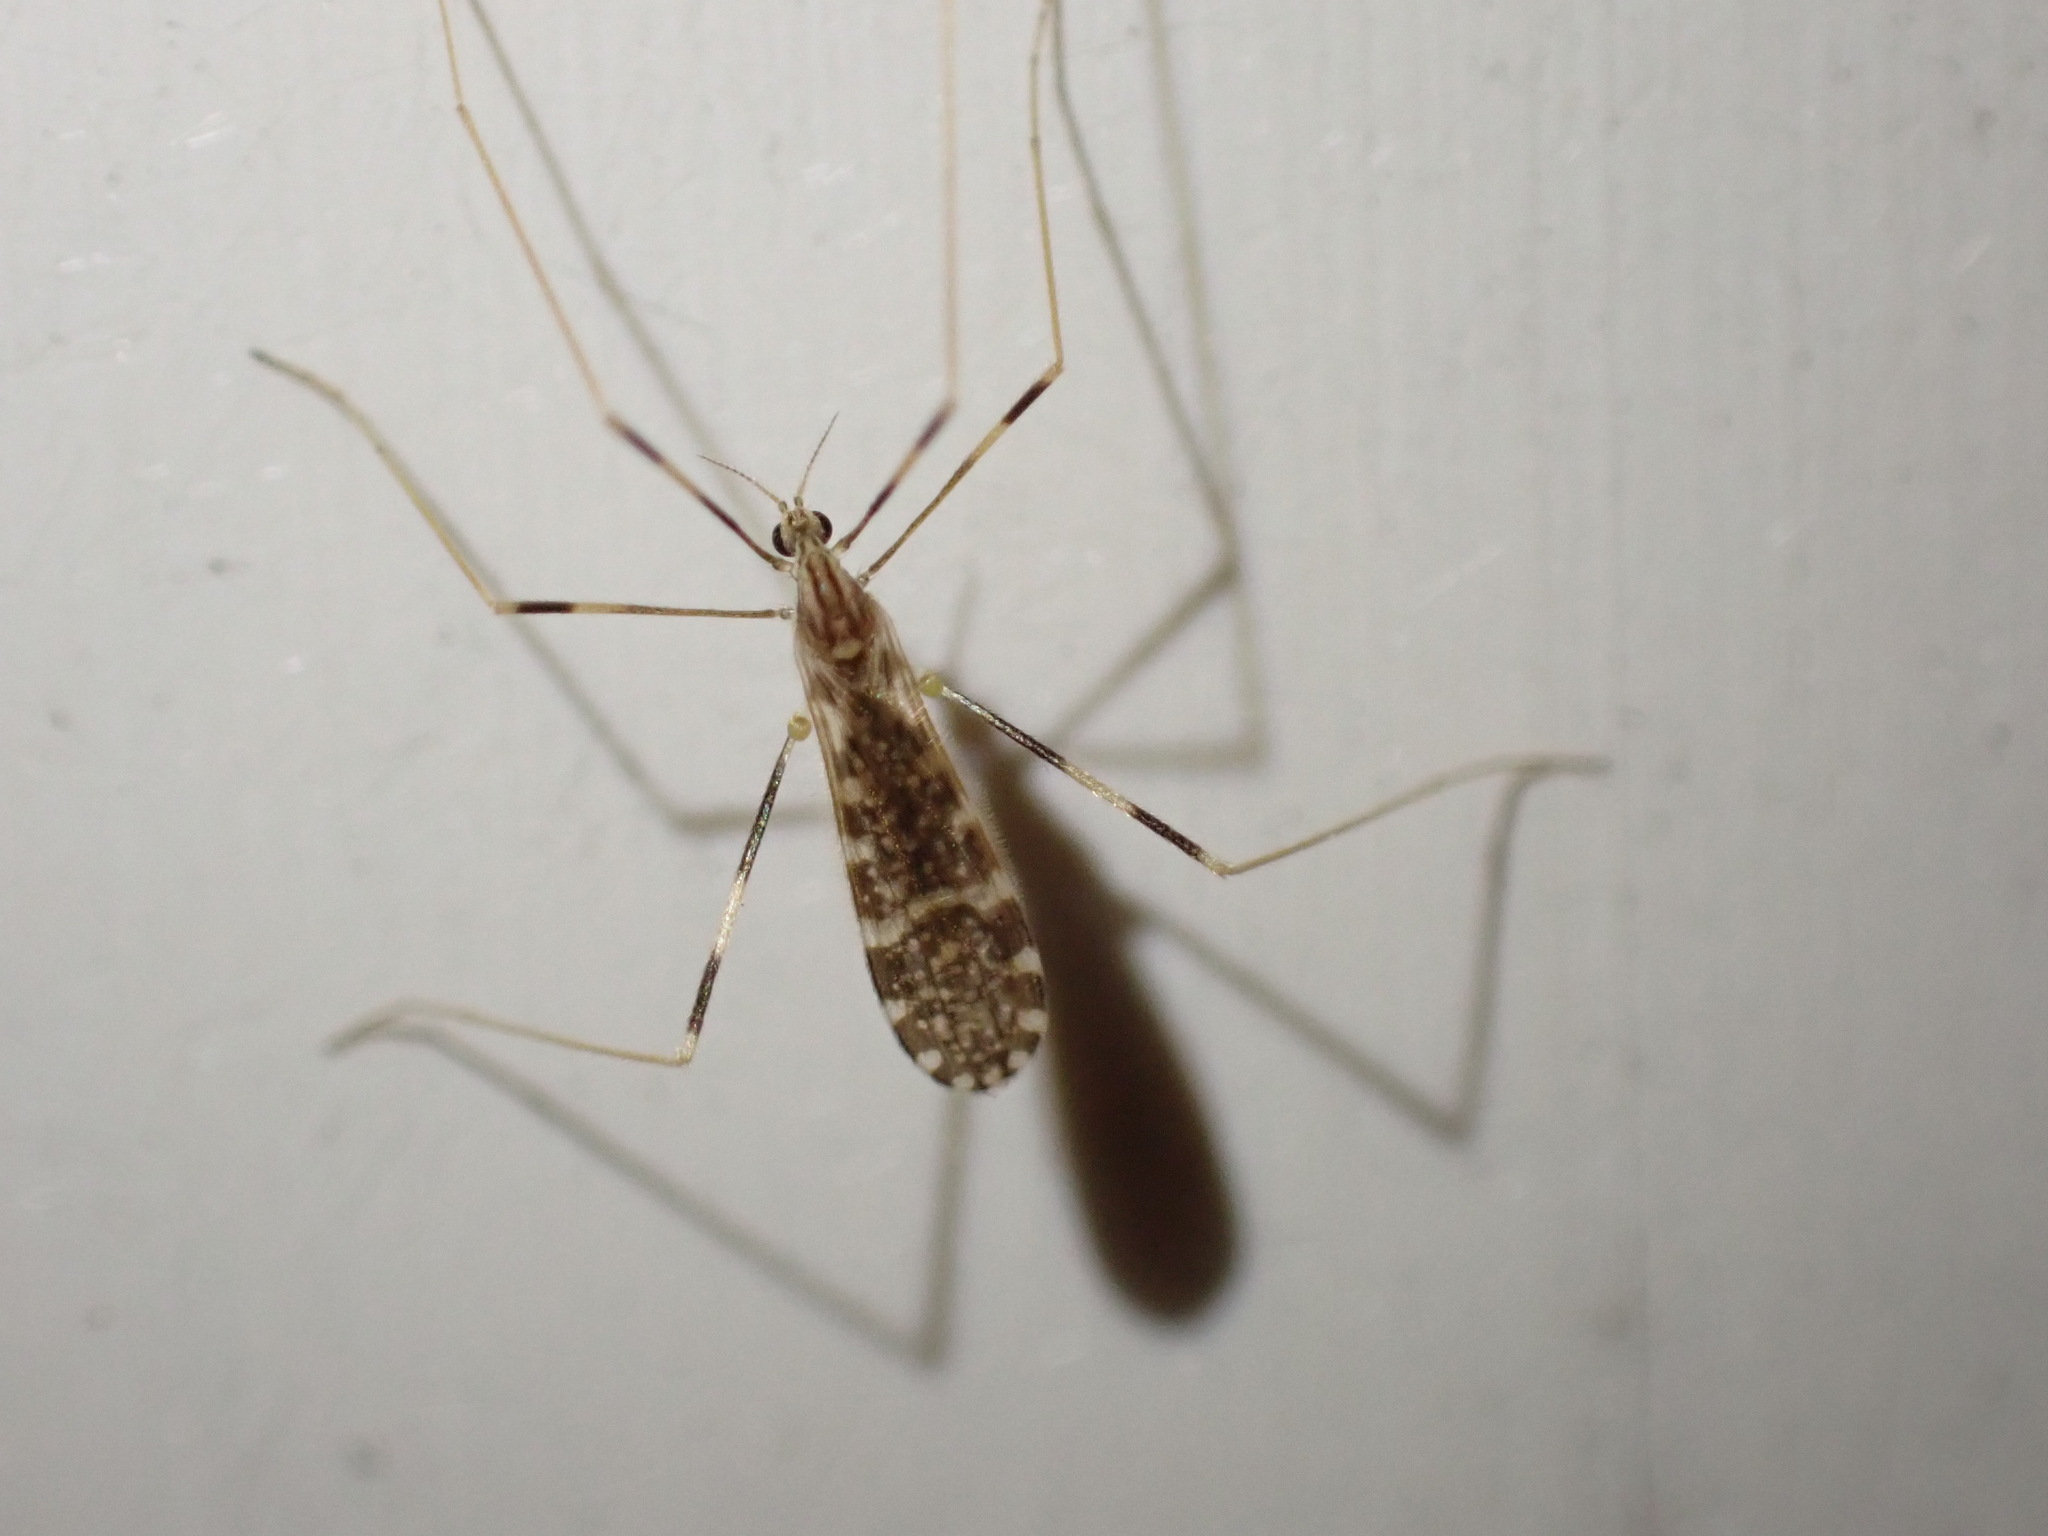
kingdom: Animalia
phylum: Arthropoda
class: Insecta
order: Diptera
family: Limoniidae
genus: Erioptera
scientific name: Erioptera caliptera
